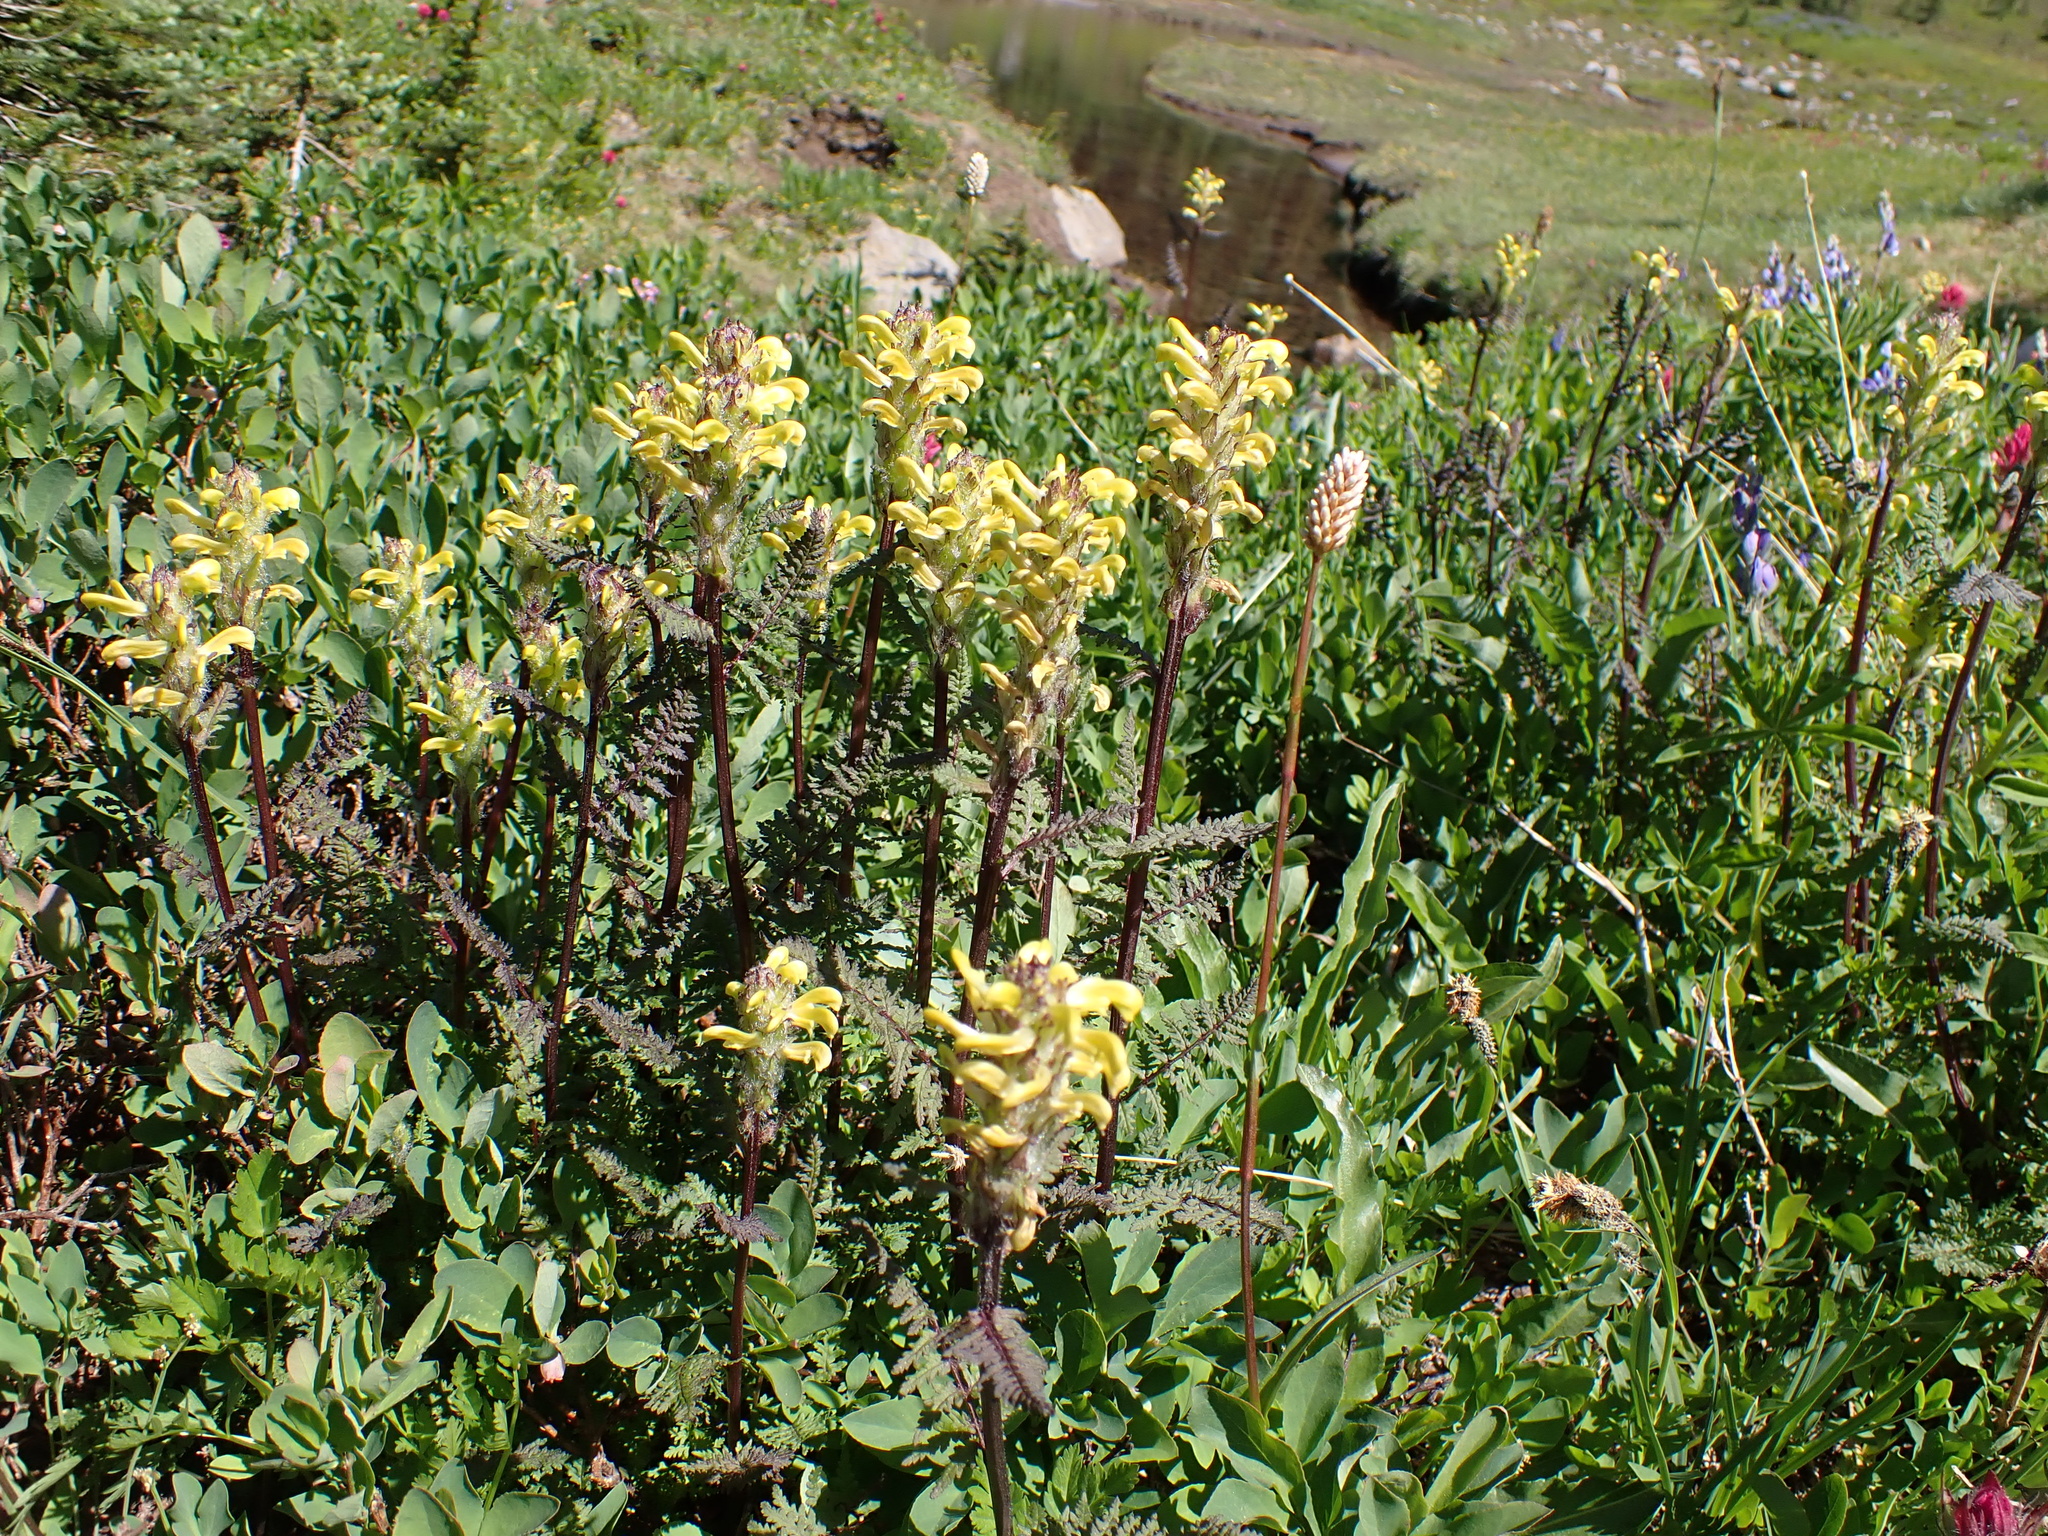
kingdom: Plantae
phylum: Tracheophyta
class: Magnoliopsida
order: Lamiales
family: Orobanchaceae
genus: Pedicularis
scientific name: Pedicularis bracteosa
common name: Bracted lousewort
